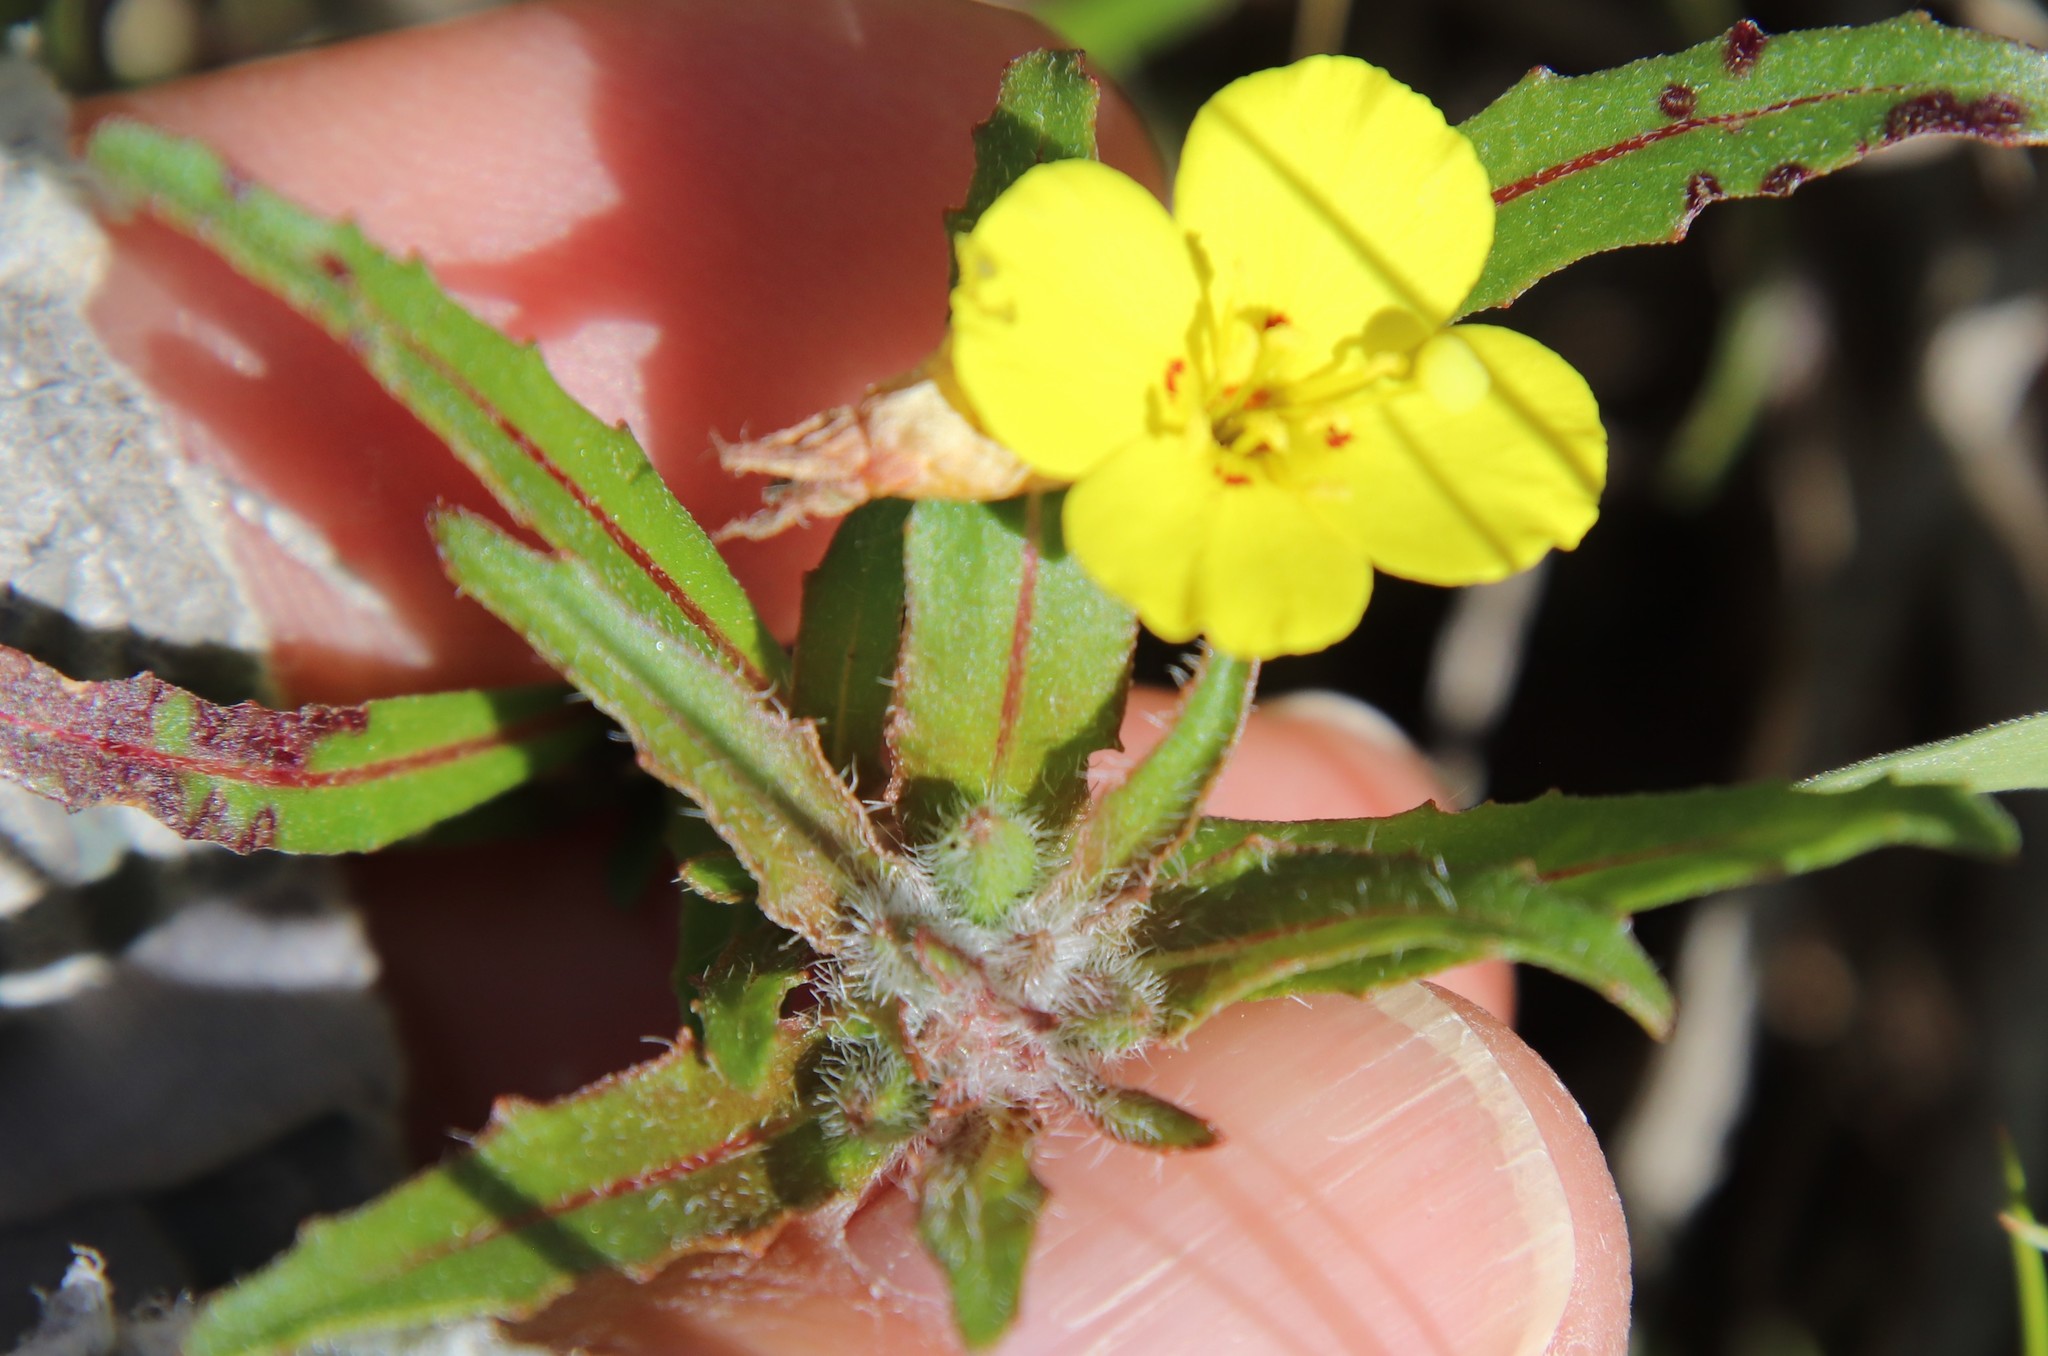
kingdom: Plantae
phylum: Tracheophyta
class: Magnoliopsida
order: Myrtales
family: Onagraceae
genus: Camissoniopsis
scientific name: Camissoniopsis bistorta
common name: Southern suncup
